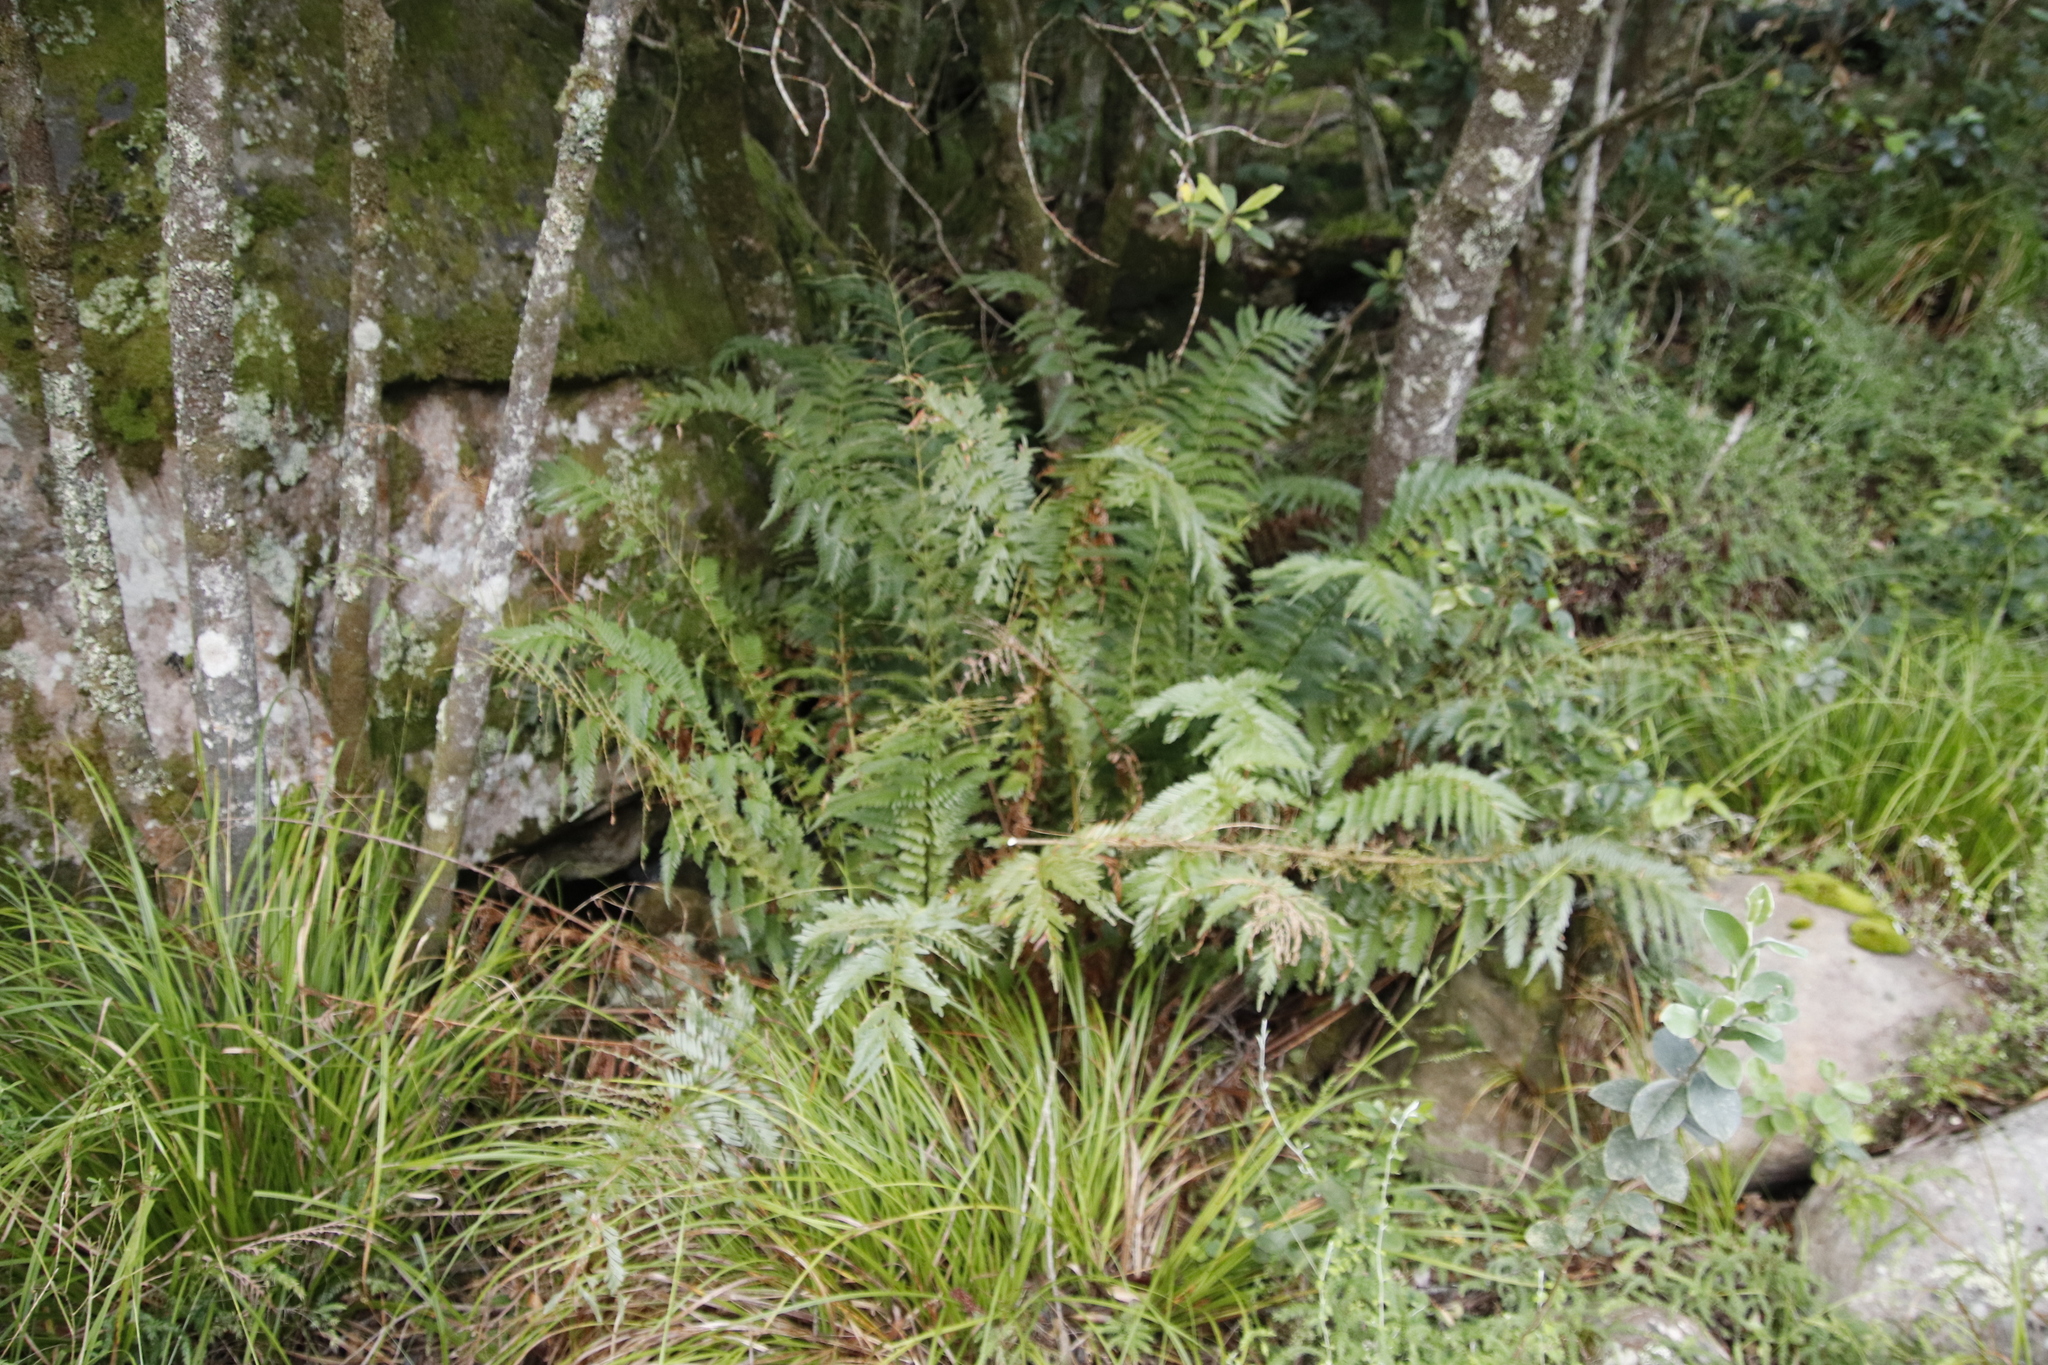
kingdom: Plantae
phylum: Tracheophyta
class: Polypodiopsida
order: Osmundales
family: Osmundaceae
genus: Todea
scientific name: Todea barbara
